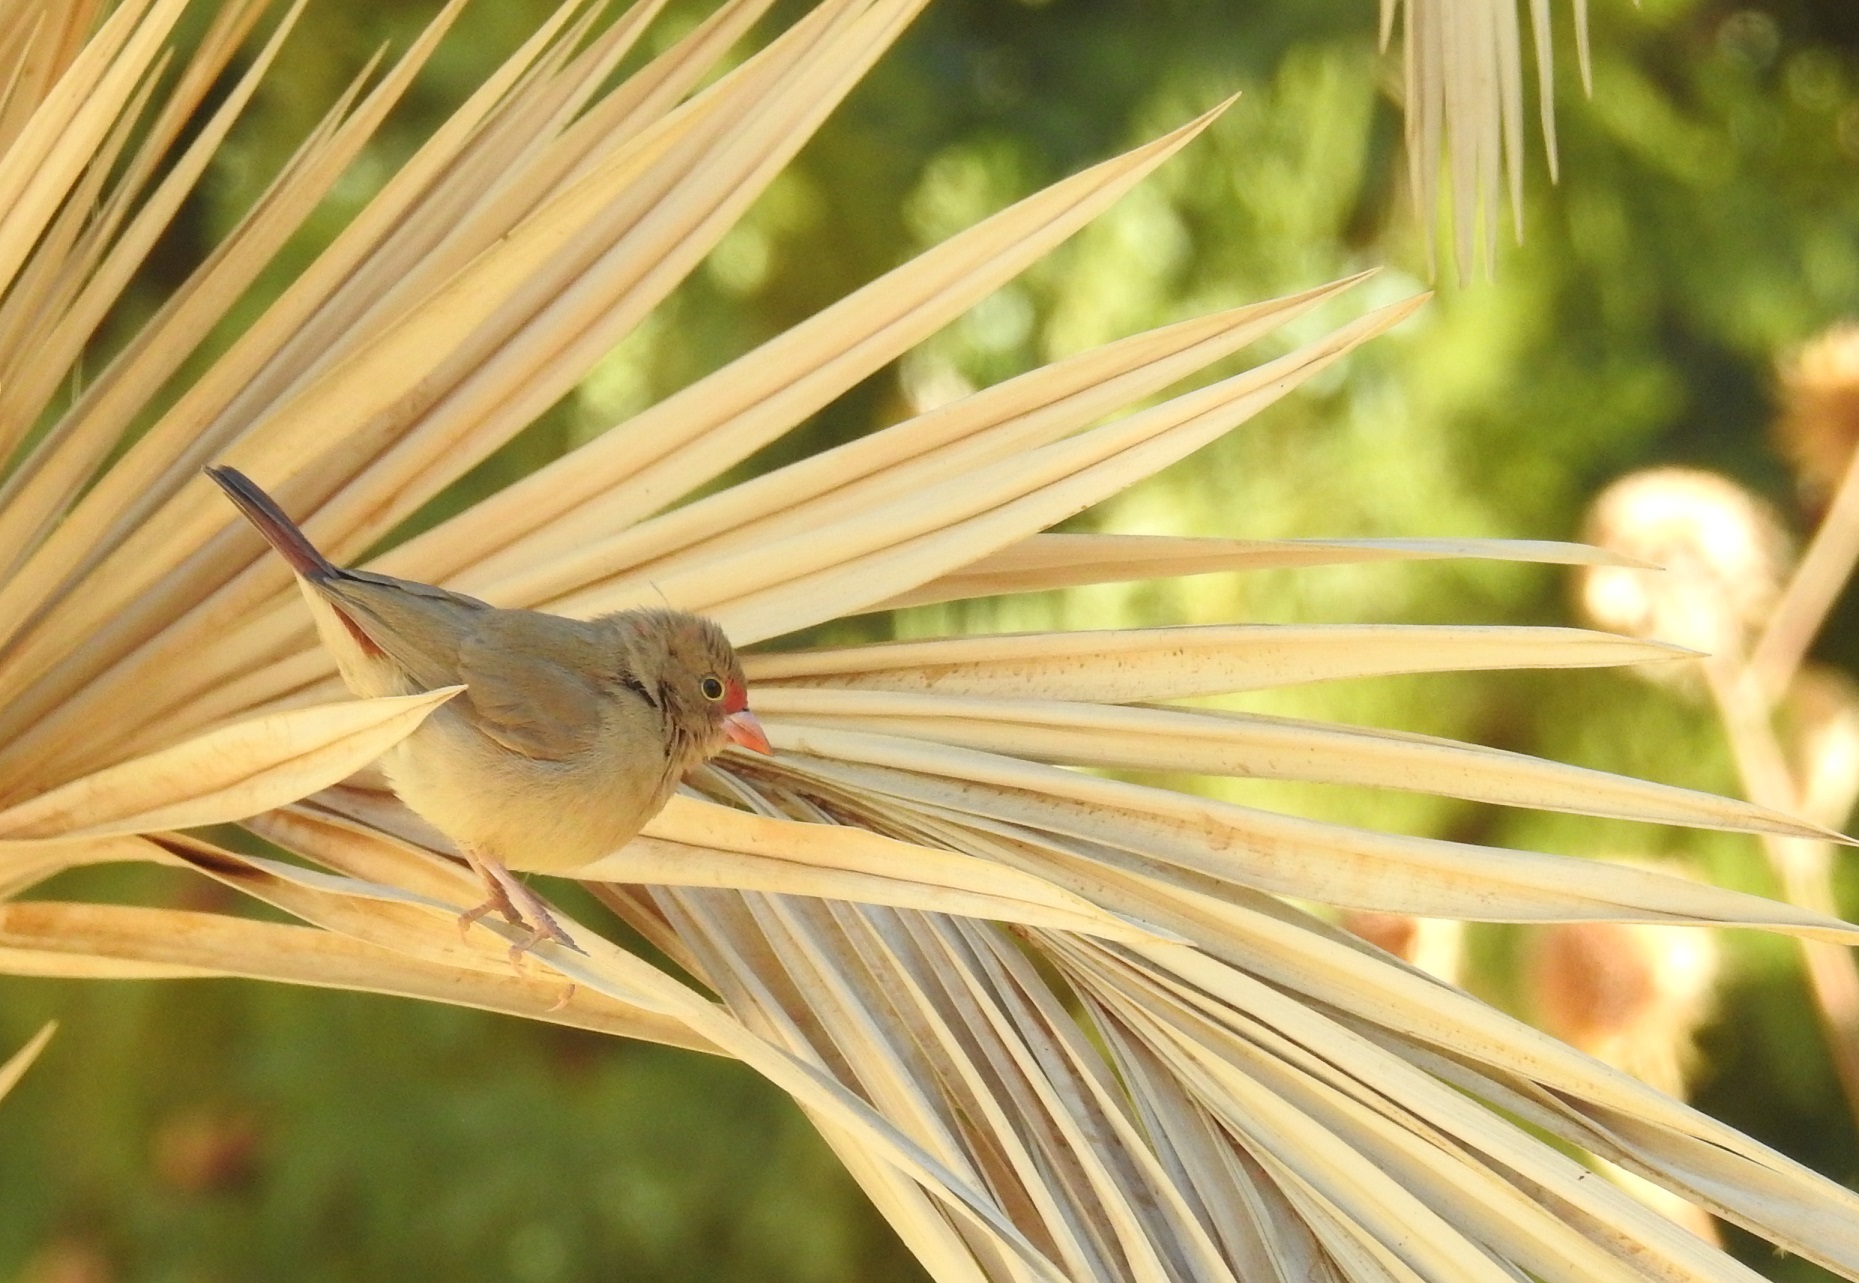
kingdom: Animalia
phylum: Chordata
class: Aves
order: Passeriformes
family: Estrildidae
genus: Lagonosticta
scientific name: Lagonosticta senegala
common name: Red-billed firefinch
